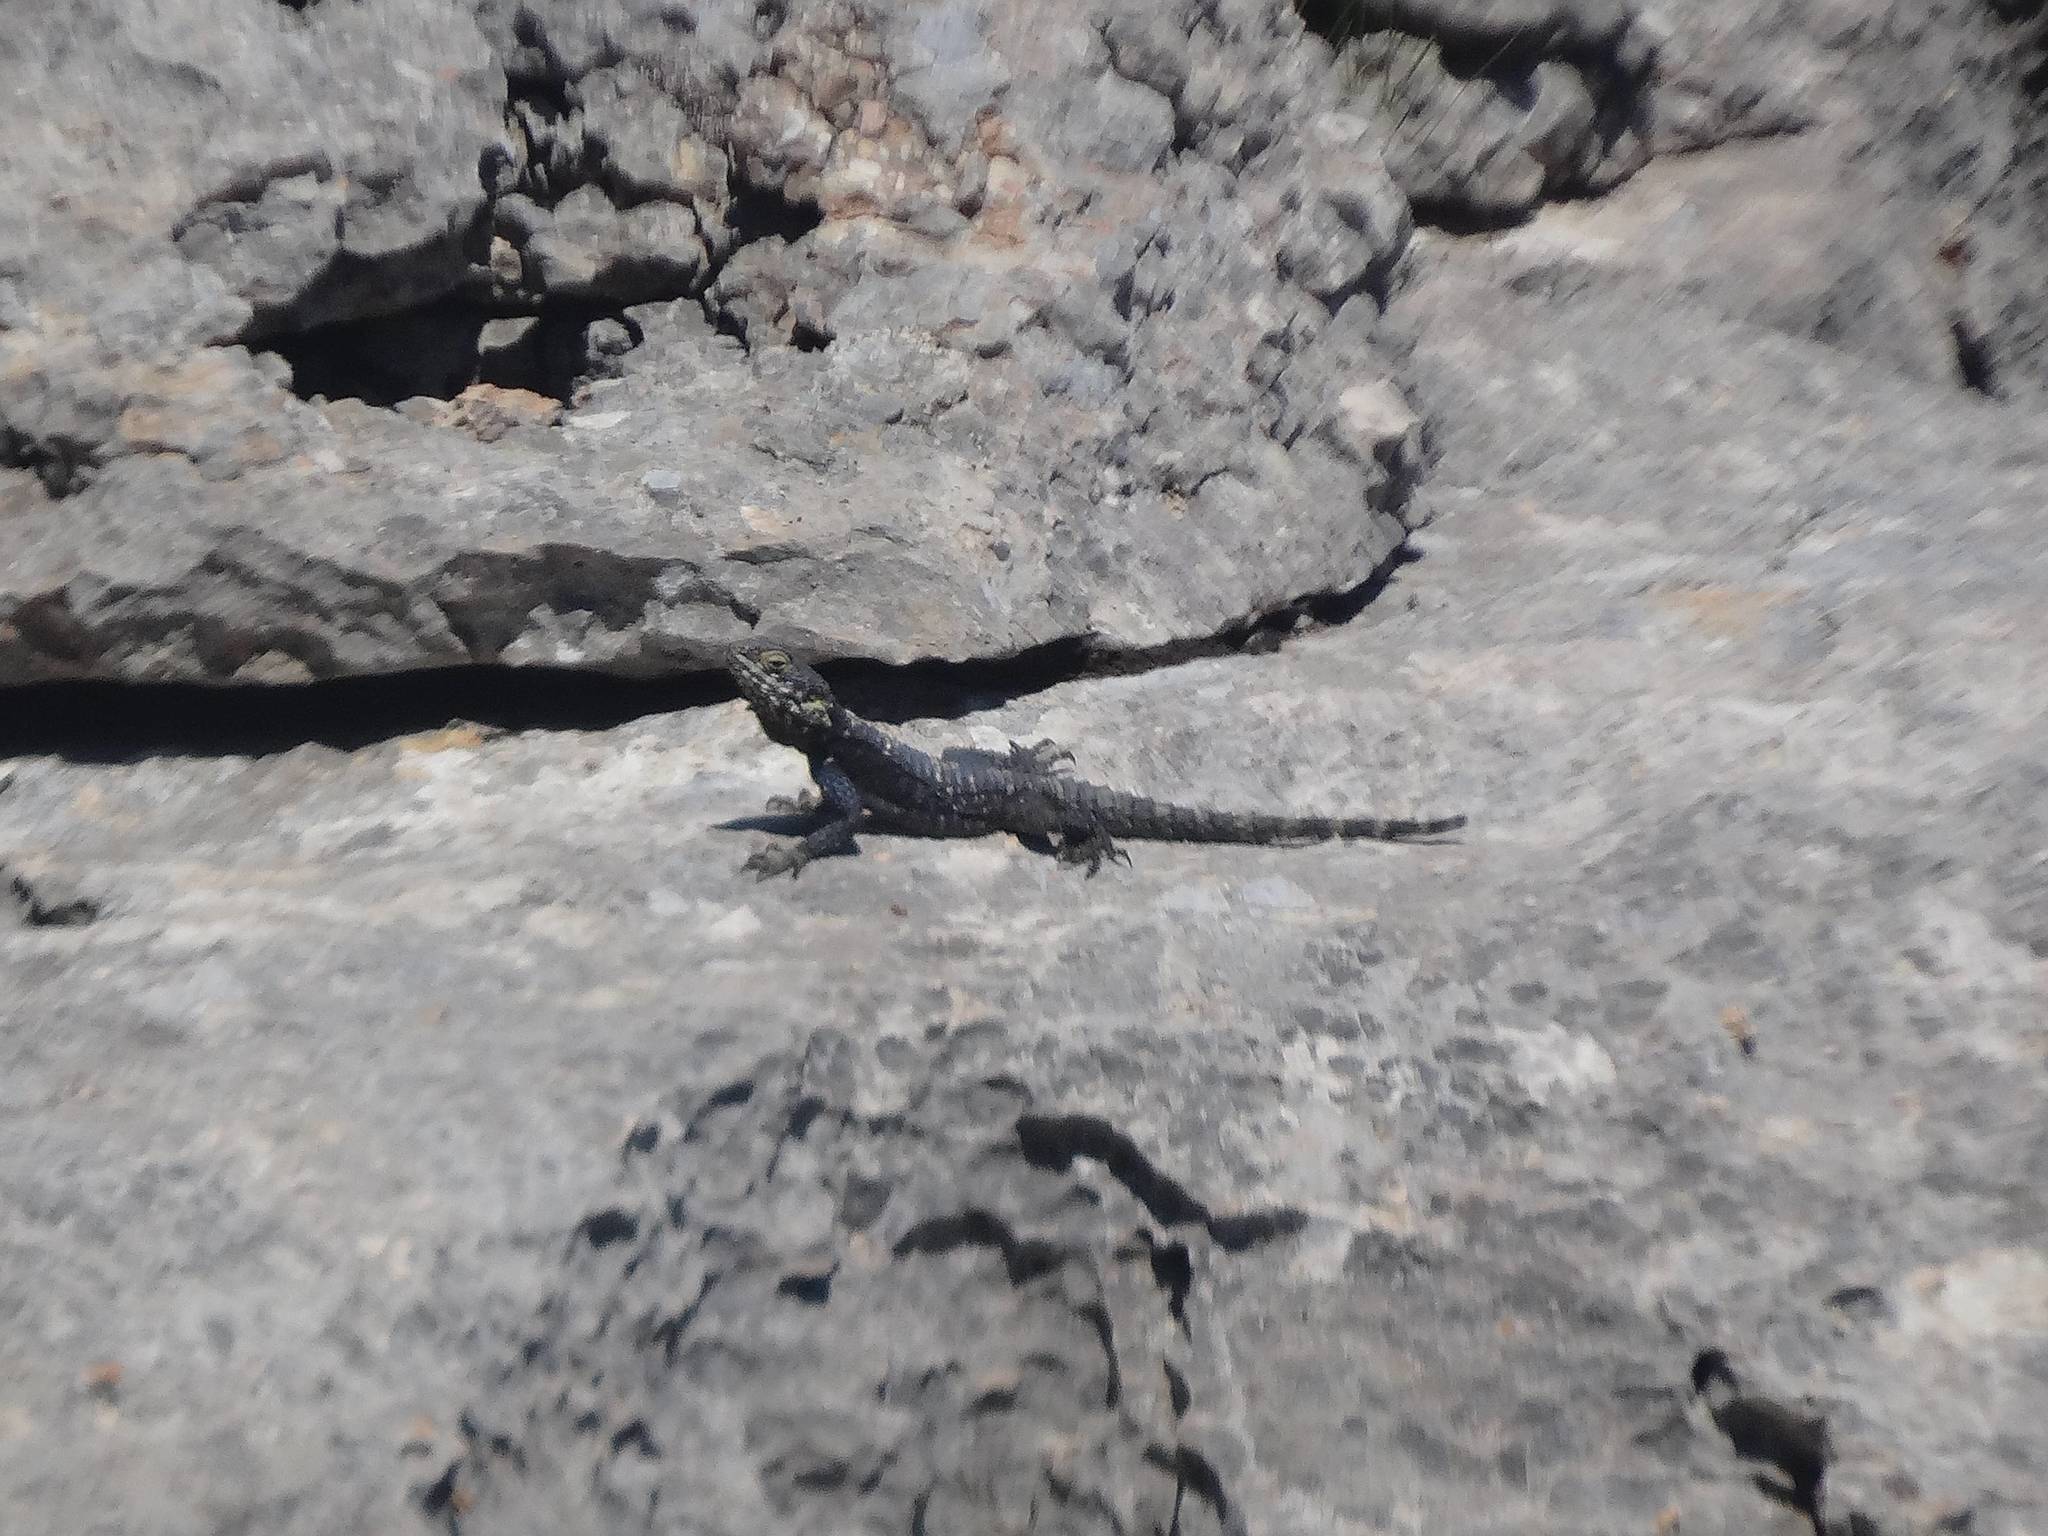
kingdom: Animalia
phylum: Chordata
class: Squamata
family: Agamidae
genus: Stellagama
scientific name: Stellagama stellio
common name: Starred agama
